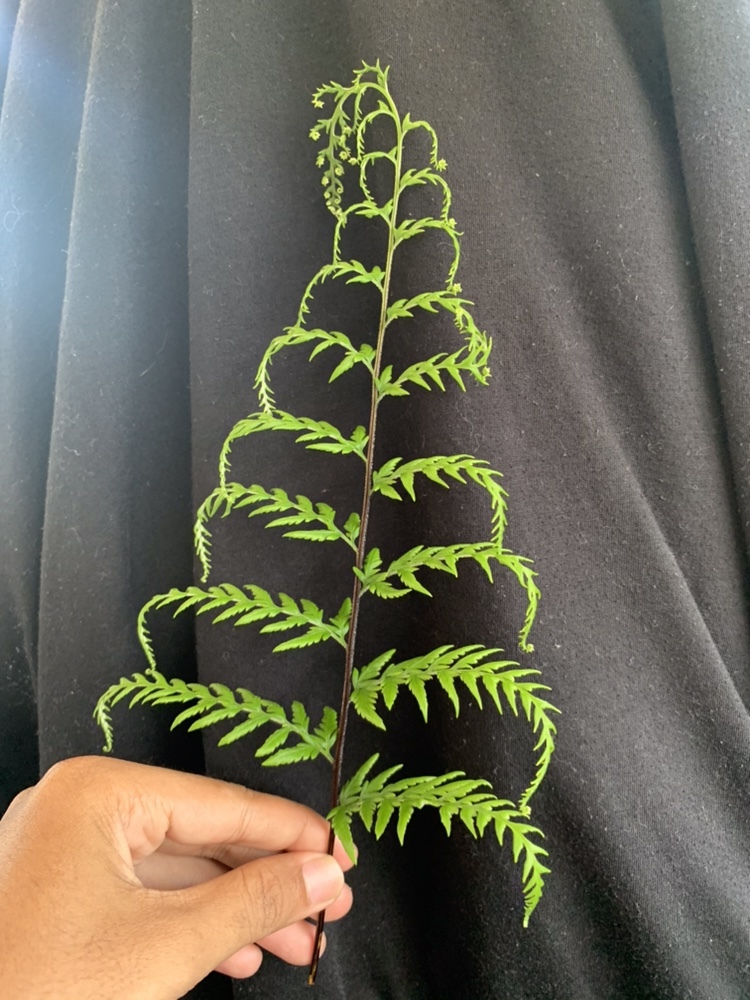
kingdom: Plantae
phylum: Tracheophyta
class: Polypodiopsida
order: Polypodiales
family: Pteridaceae
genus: Pityrogramma
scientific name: Pityrogramma calomelanos
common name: Dixie silverback fern
